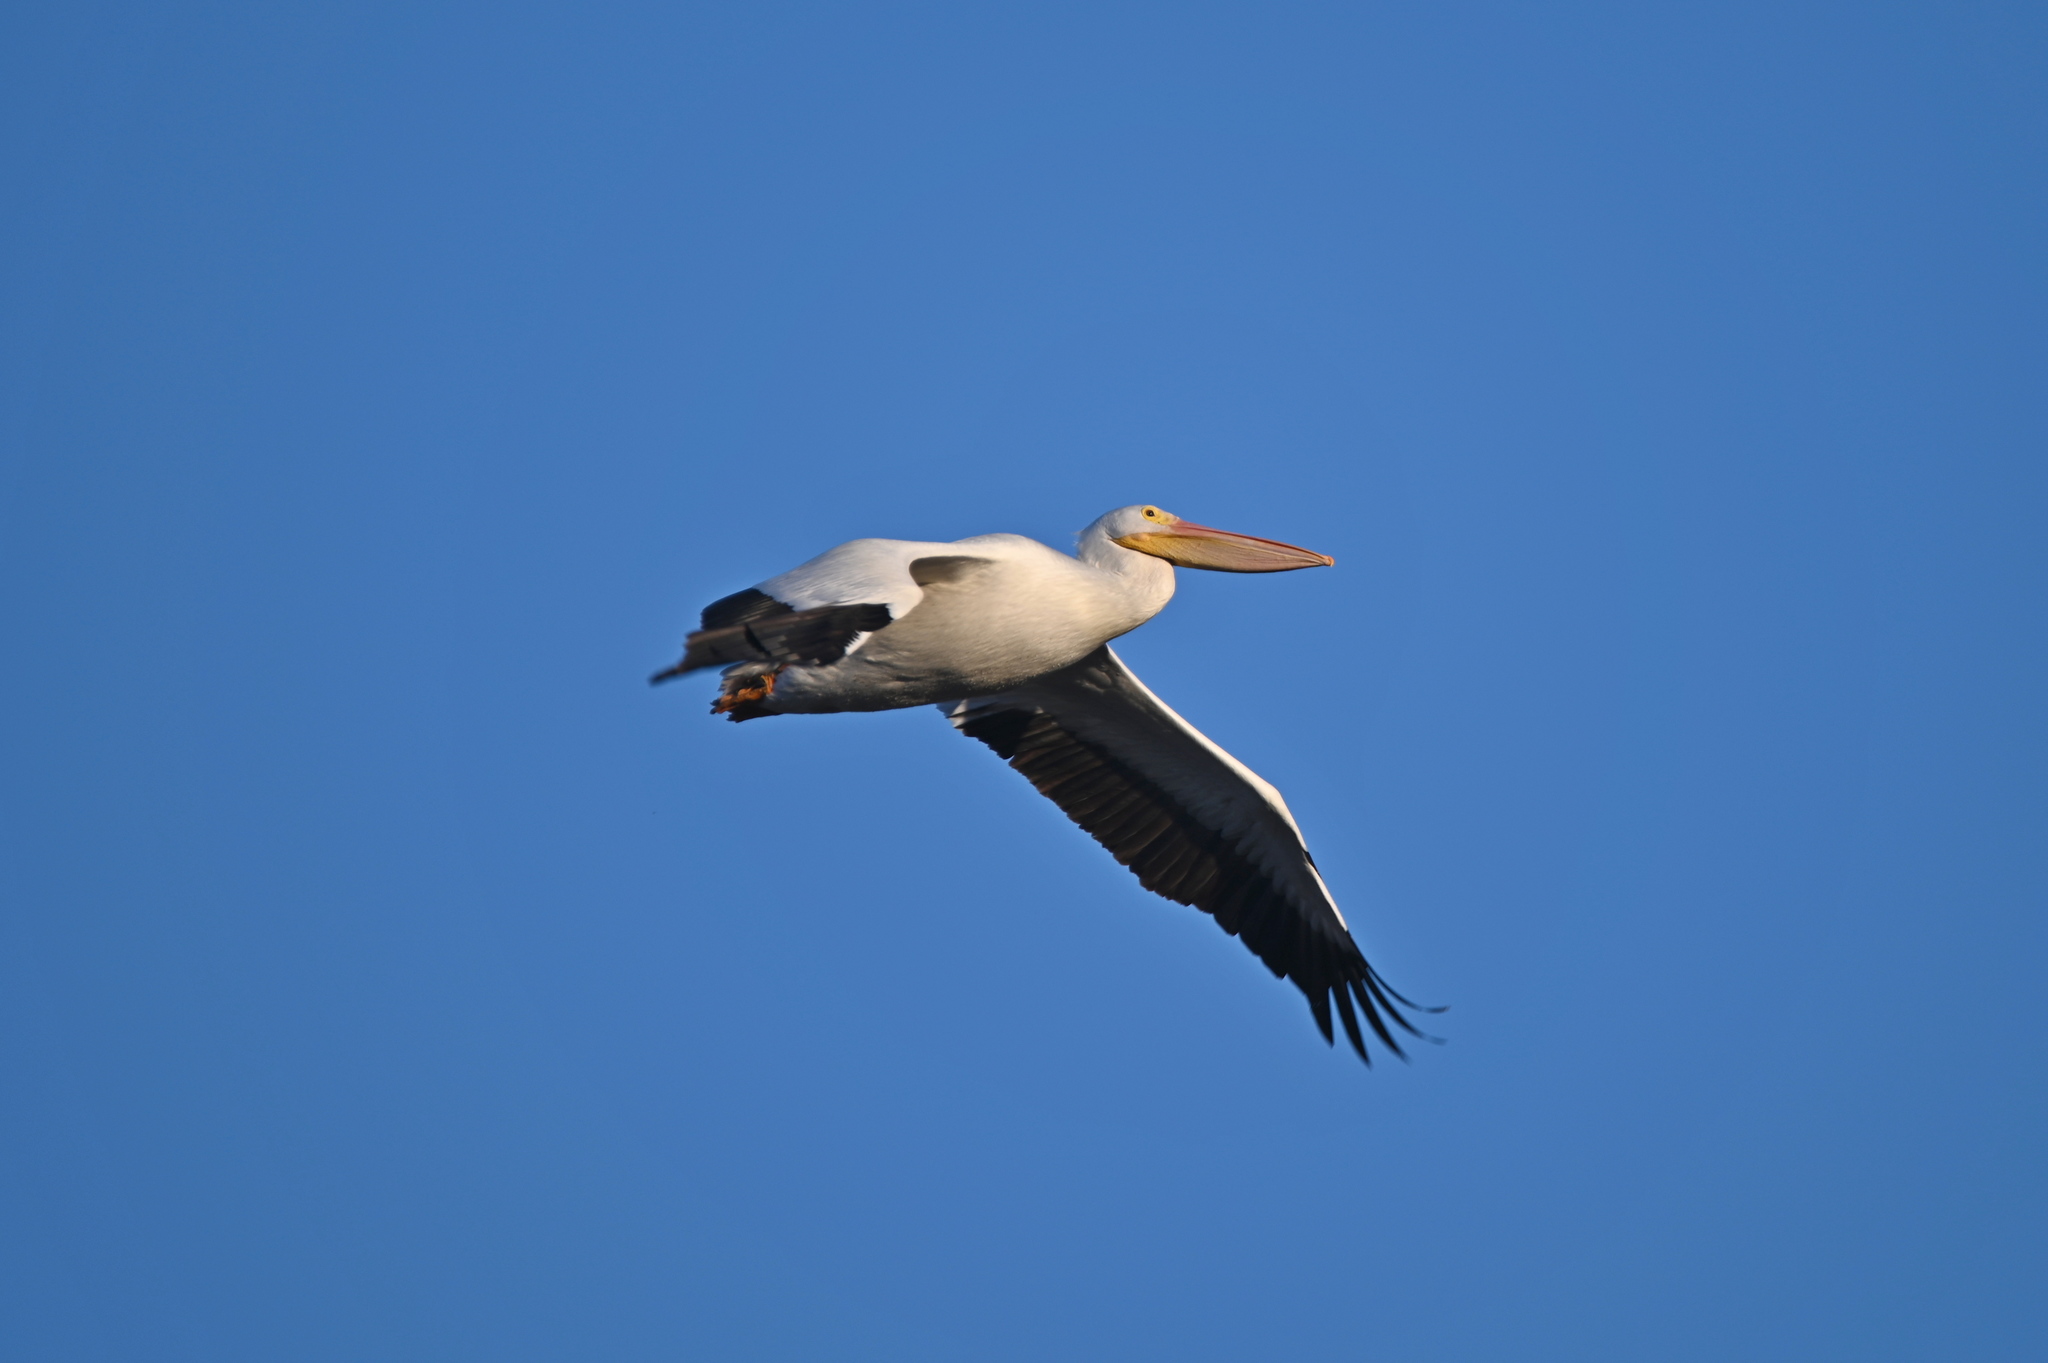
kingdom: Animalia
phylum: Chordata
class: Aves
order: Pelecaniformes
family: Pelecanidae
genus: Pelecanus
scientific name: Pelecanus erythrorhynchos
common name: American white pelican
